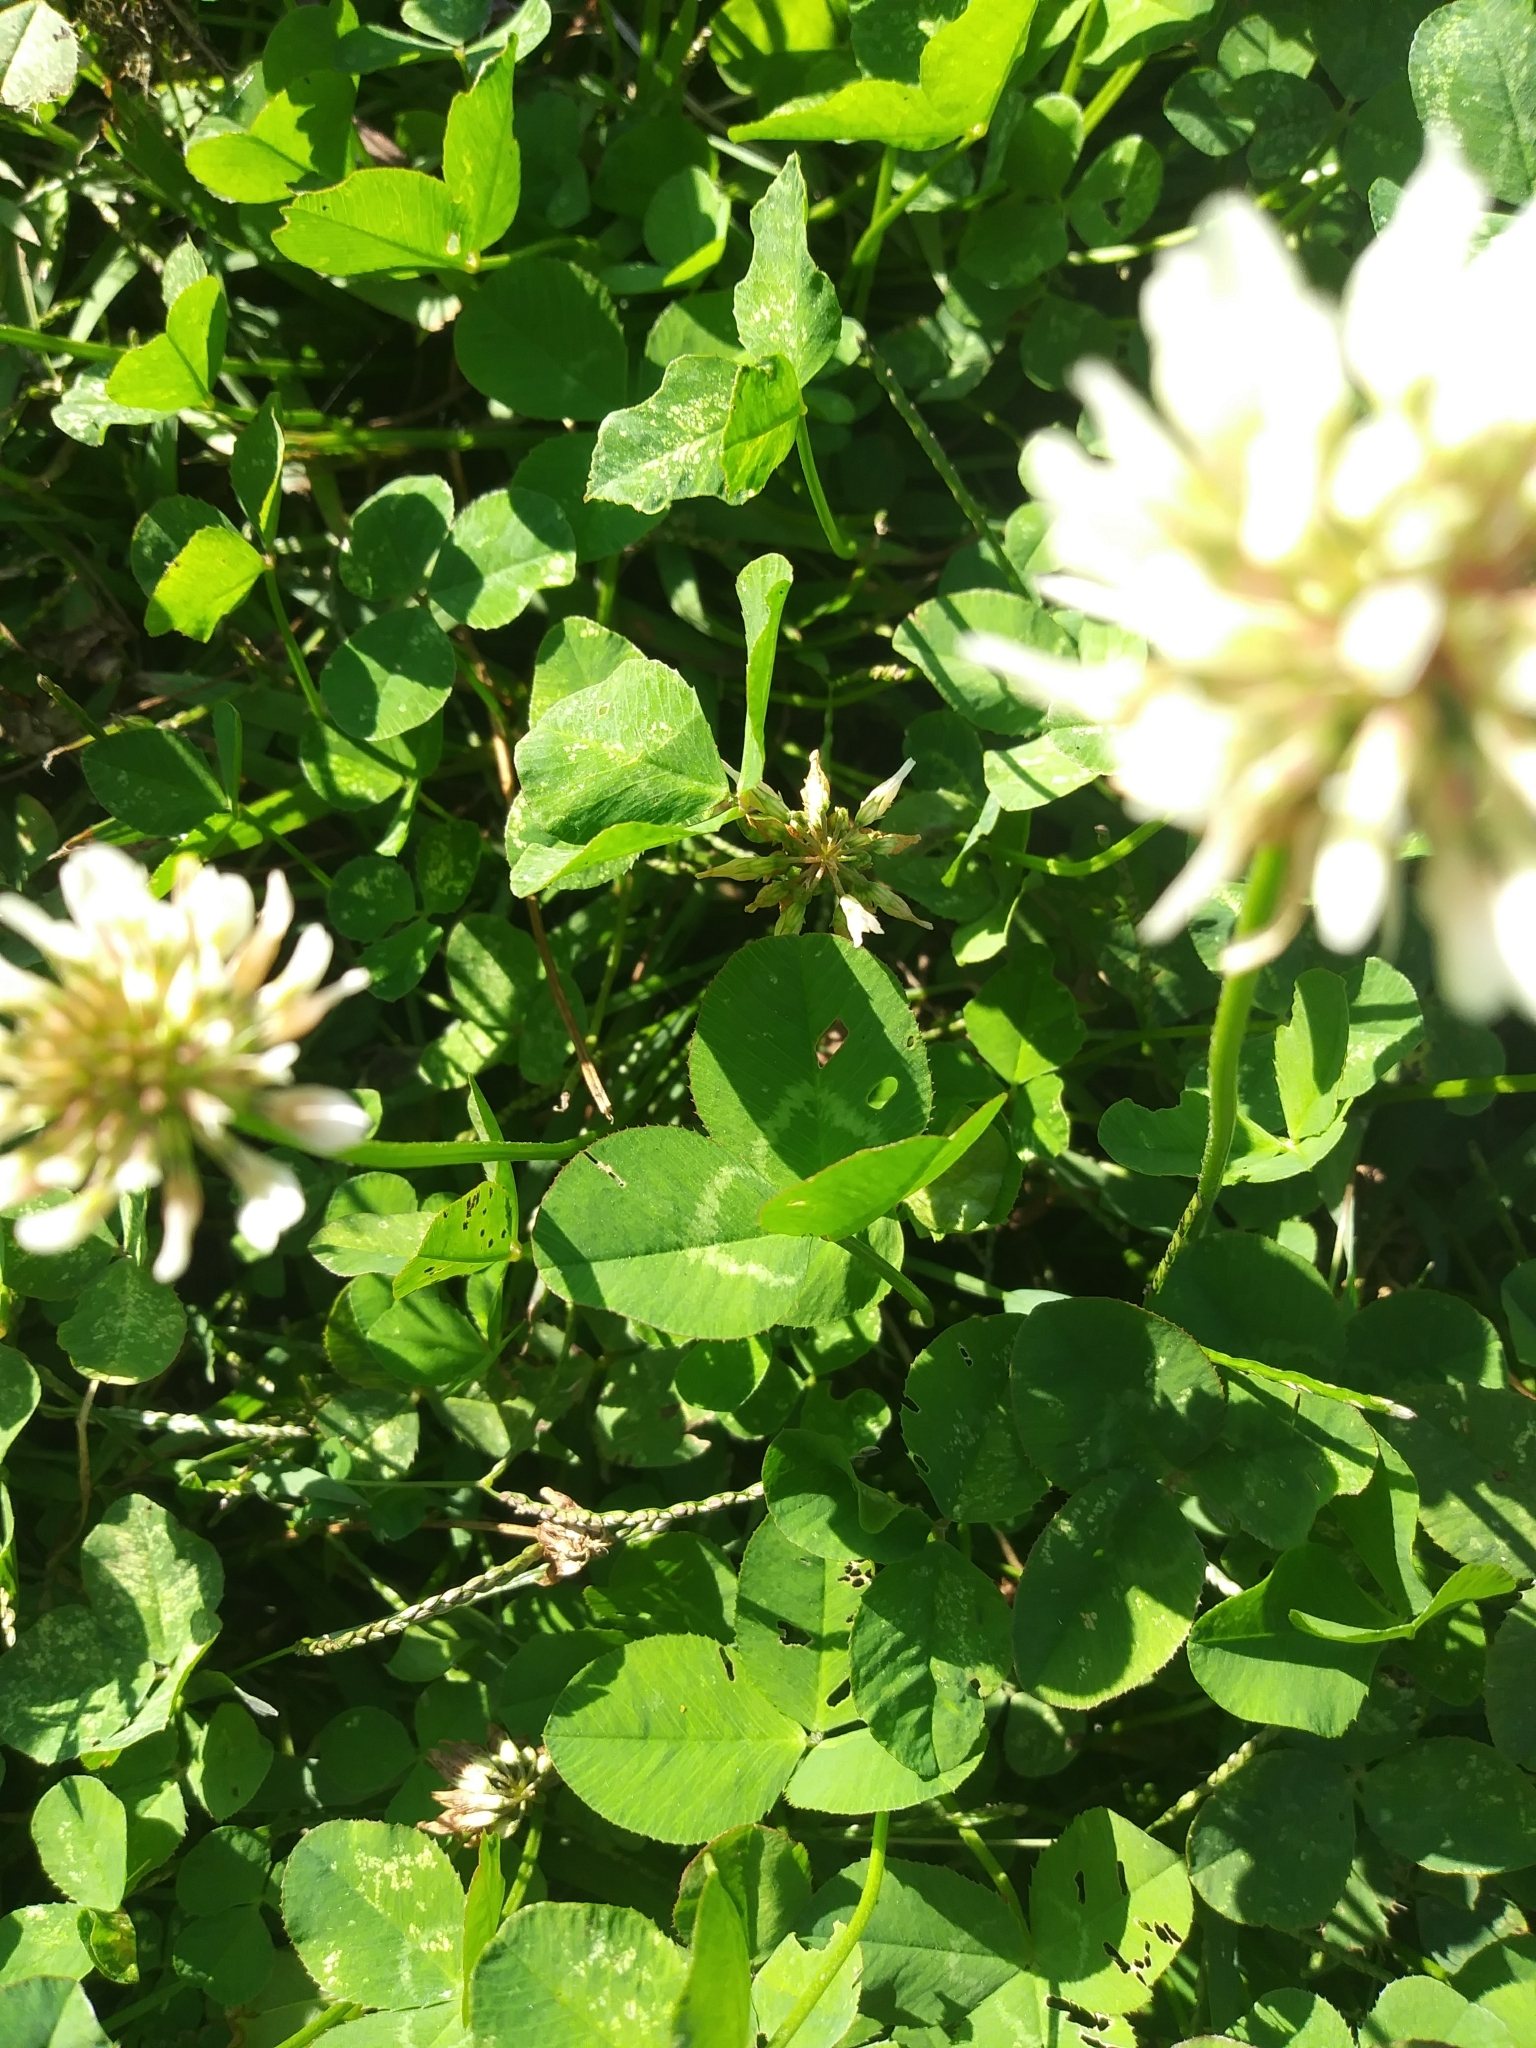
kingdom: Plantae
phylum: Tracheophyta
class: Magnoliopsida
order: Fabales
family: Fabaceae
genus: Trifolium
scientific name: Trifolium repens
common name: White clover
